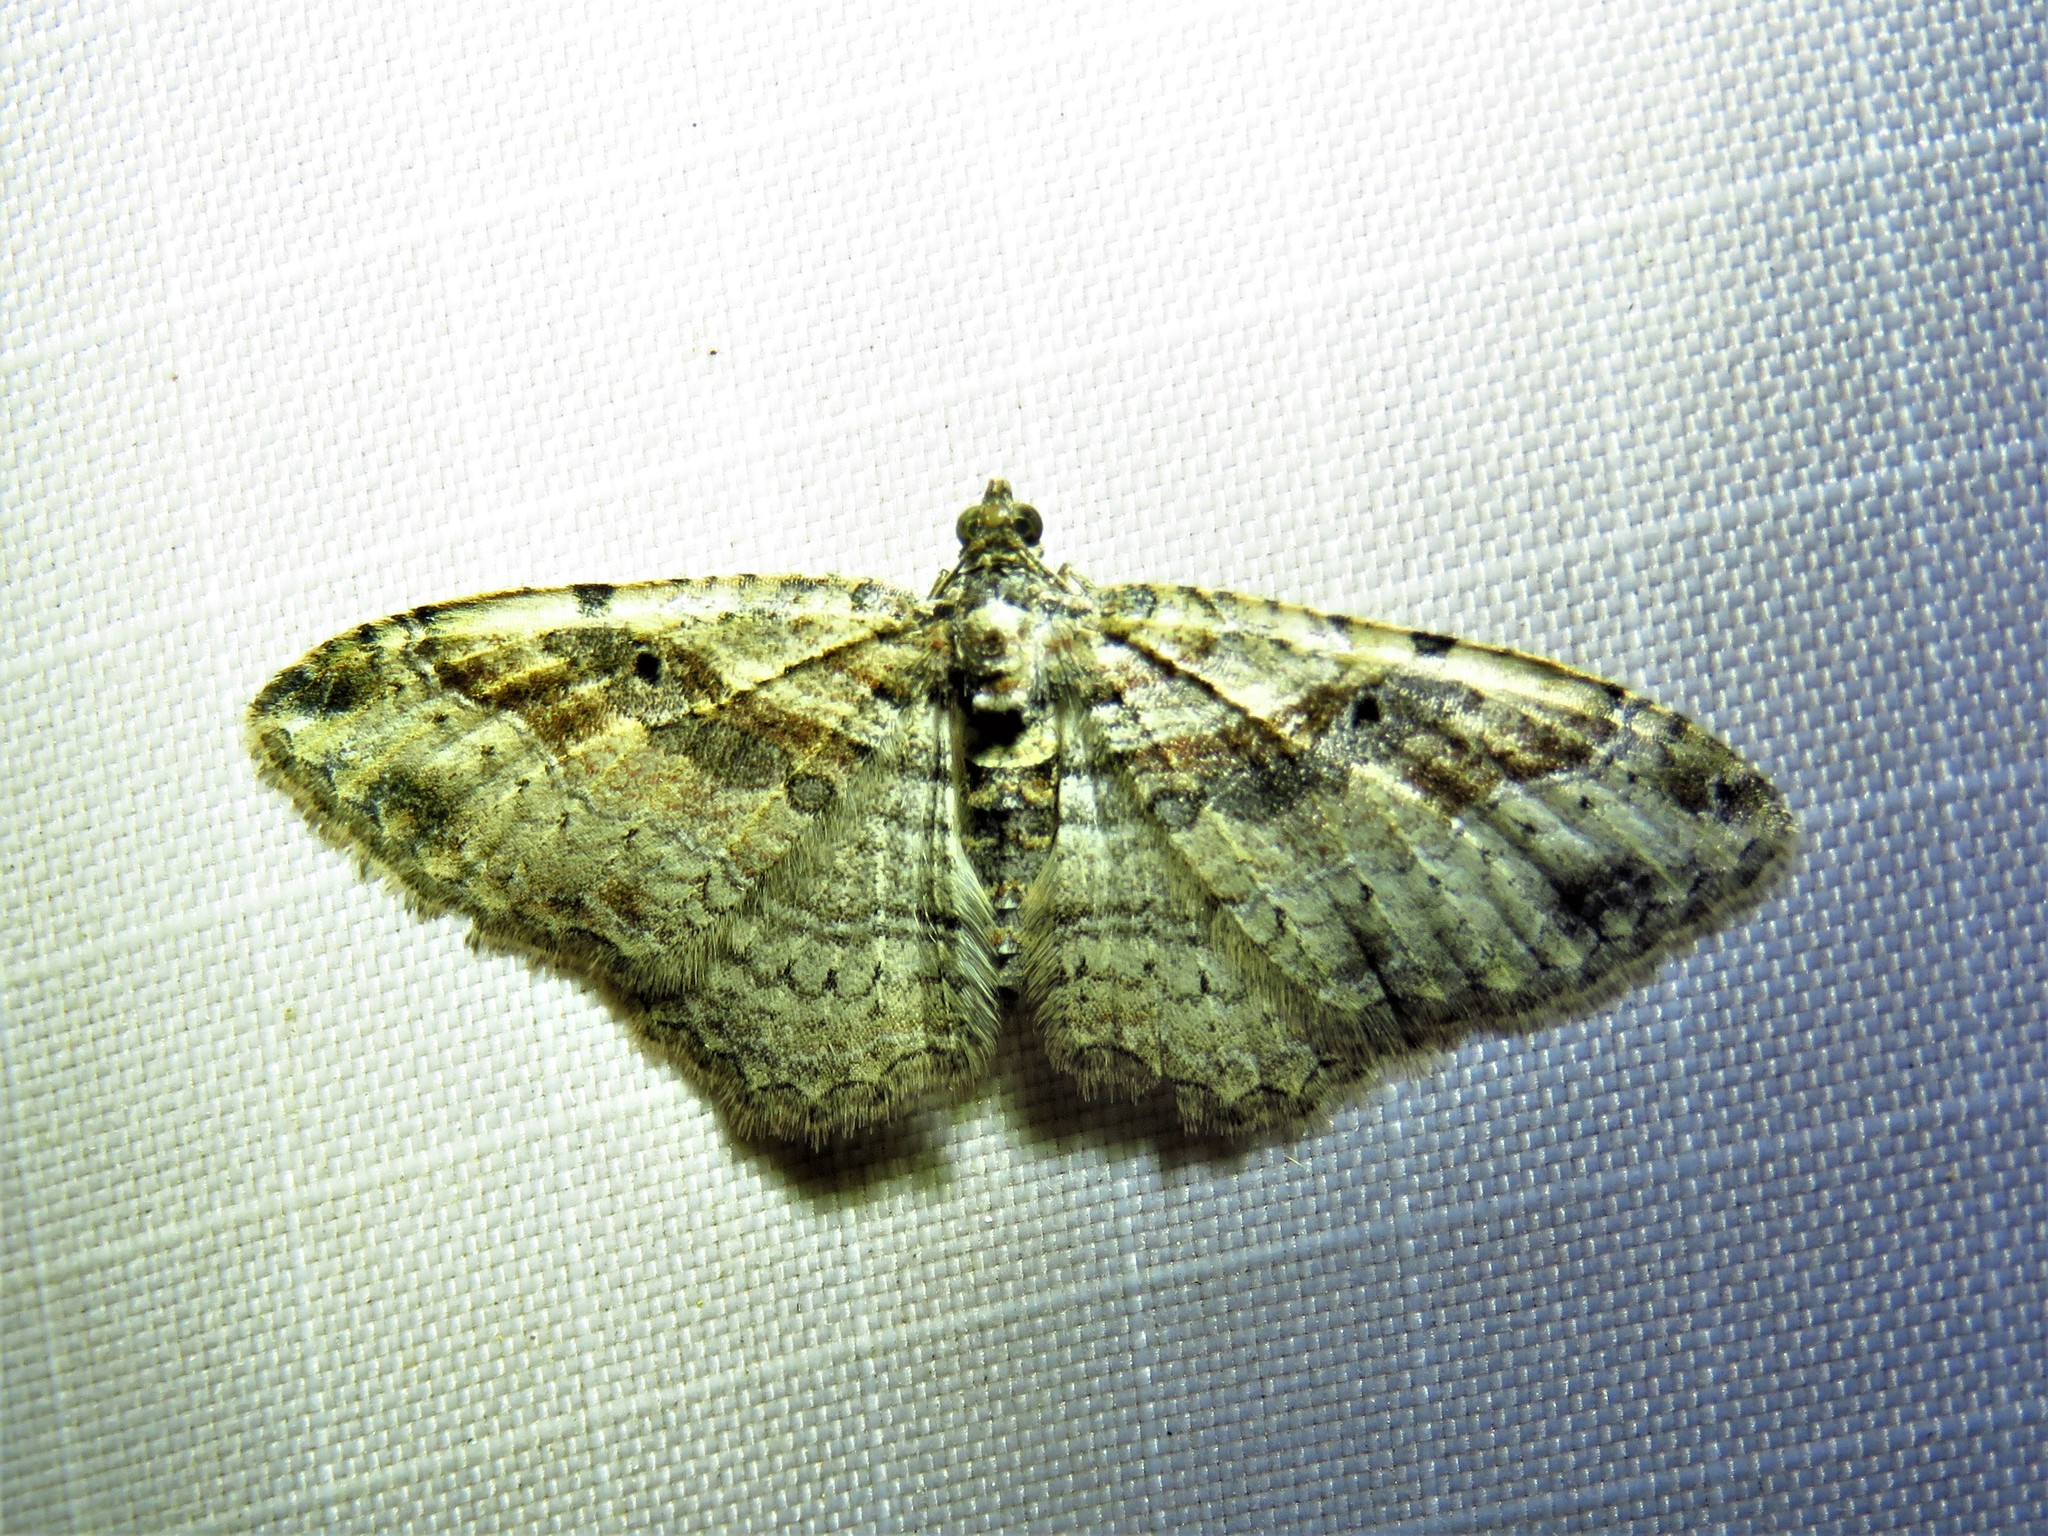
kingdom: Animalia
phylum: Arthropoda
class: Insecta
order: Lepidoptera
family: Geometridae
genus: Costaconvexa
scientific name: Costaconvexa centrostrigaria
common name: Bent-line carpet
